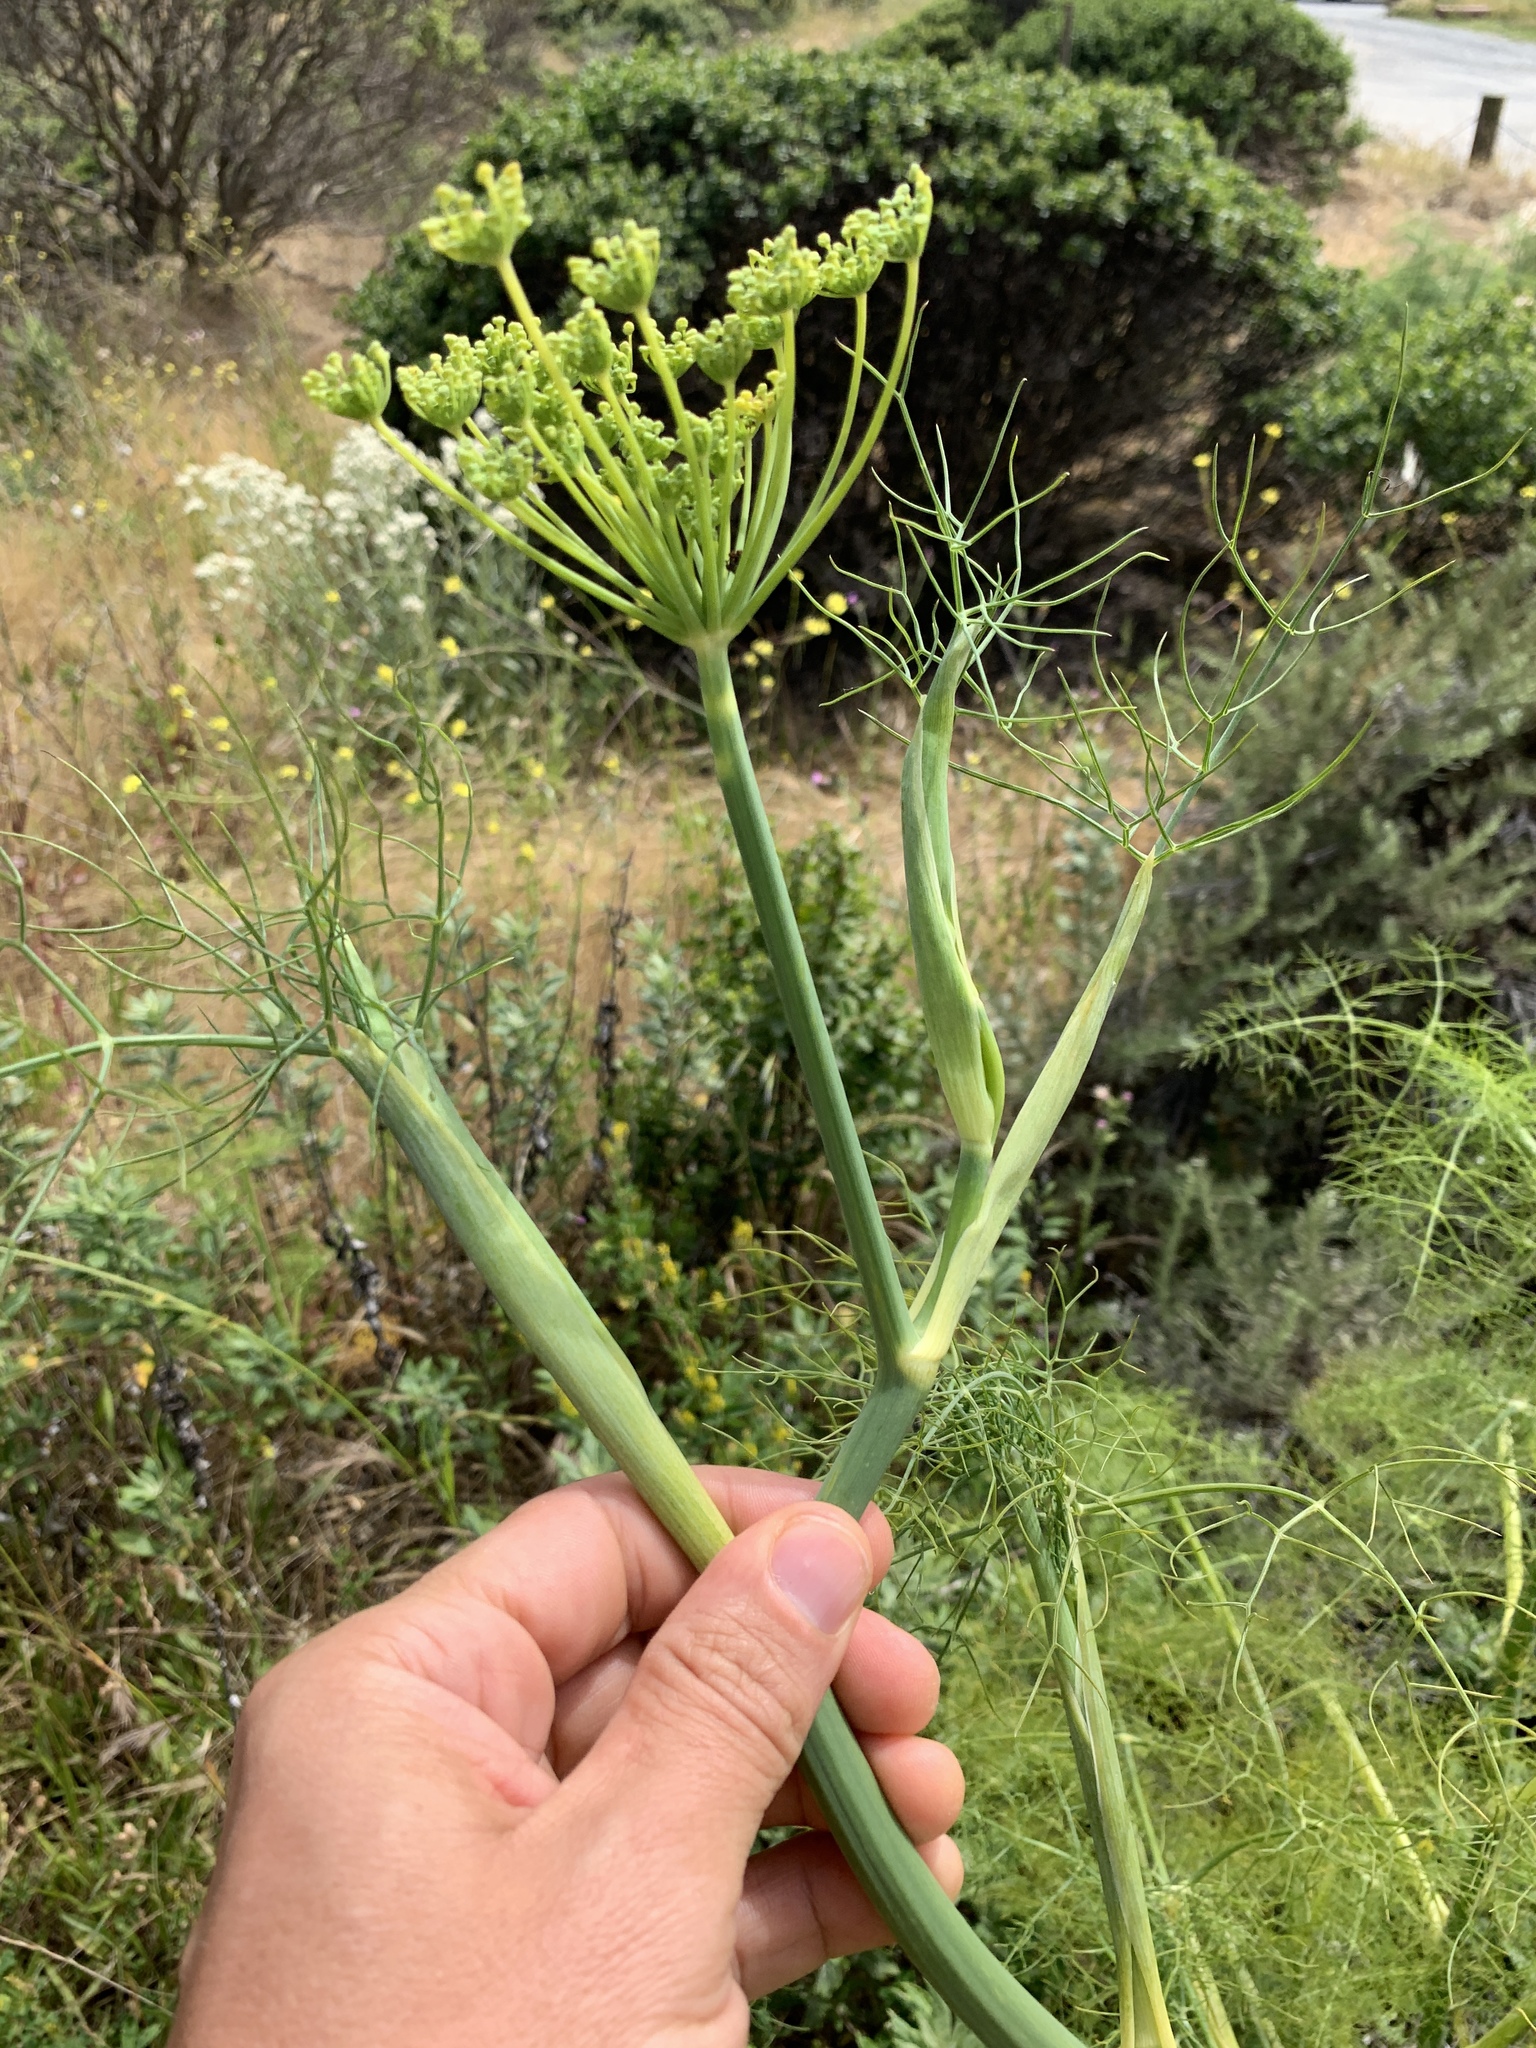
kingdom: Plantae
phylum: Tracheophyta
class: Magnoliopsida
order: Apiales
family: Apiaceae
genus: Foeniculum
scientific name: Foeniculum vulgare
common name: Fennel
